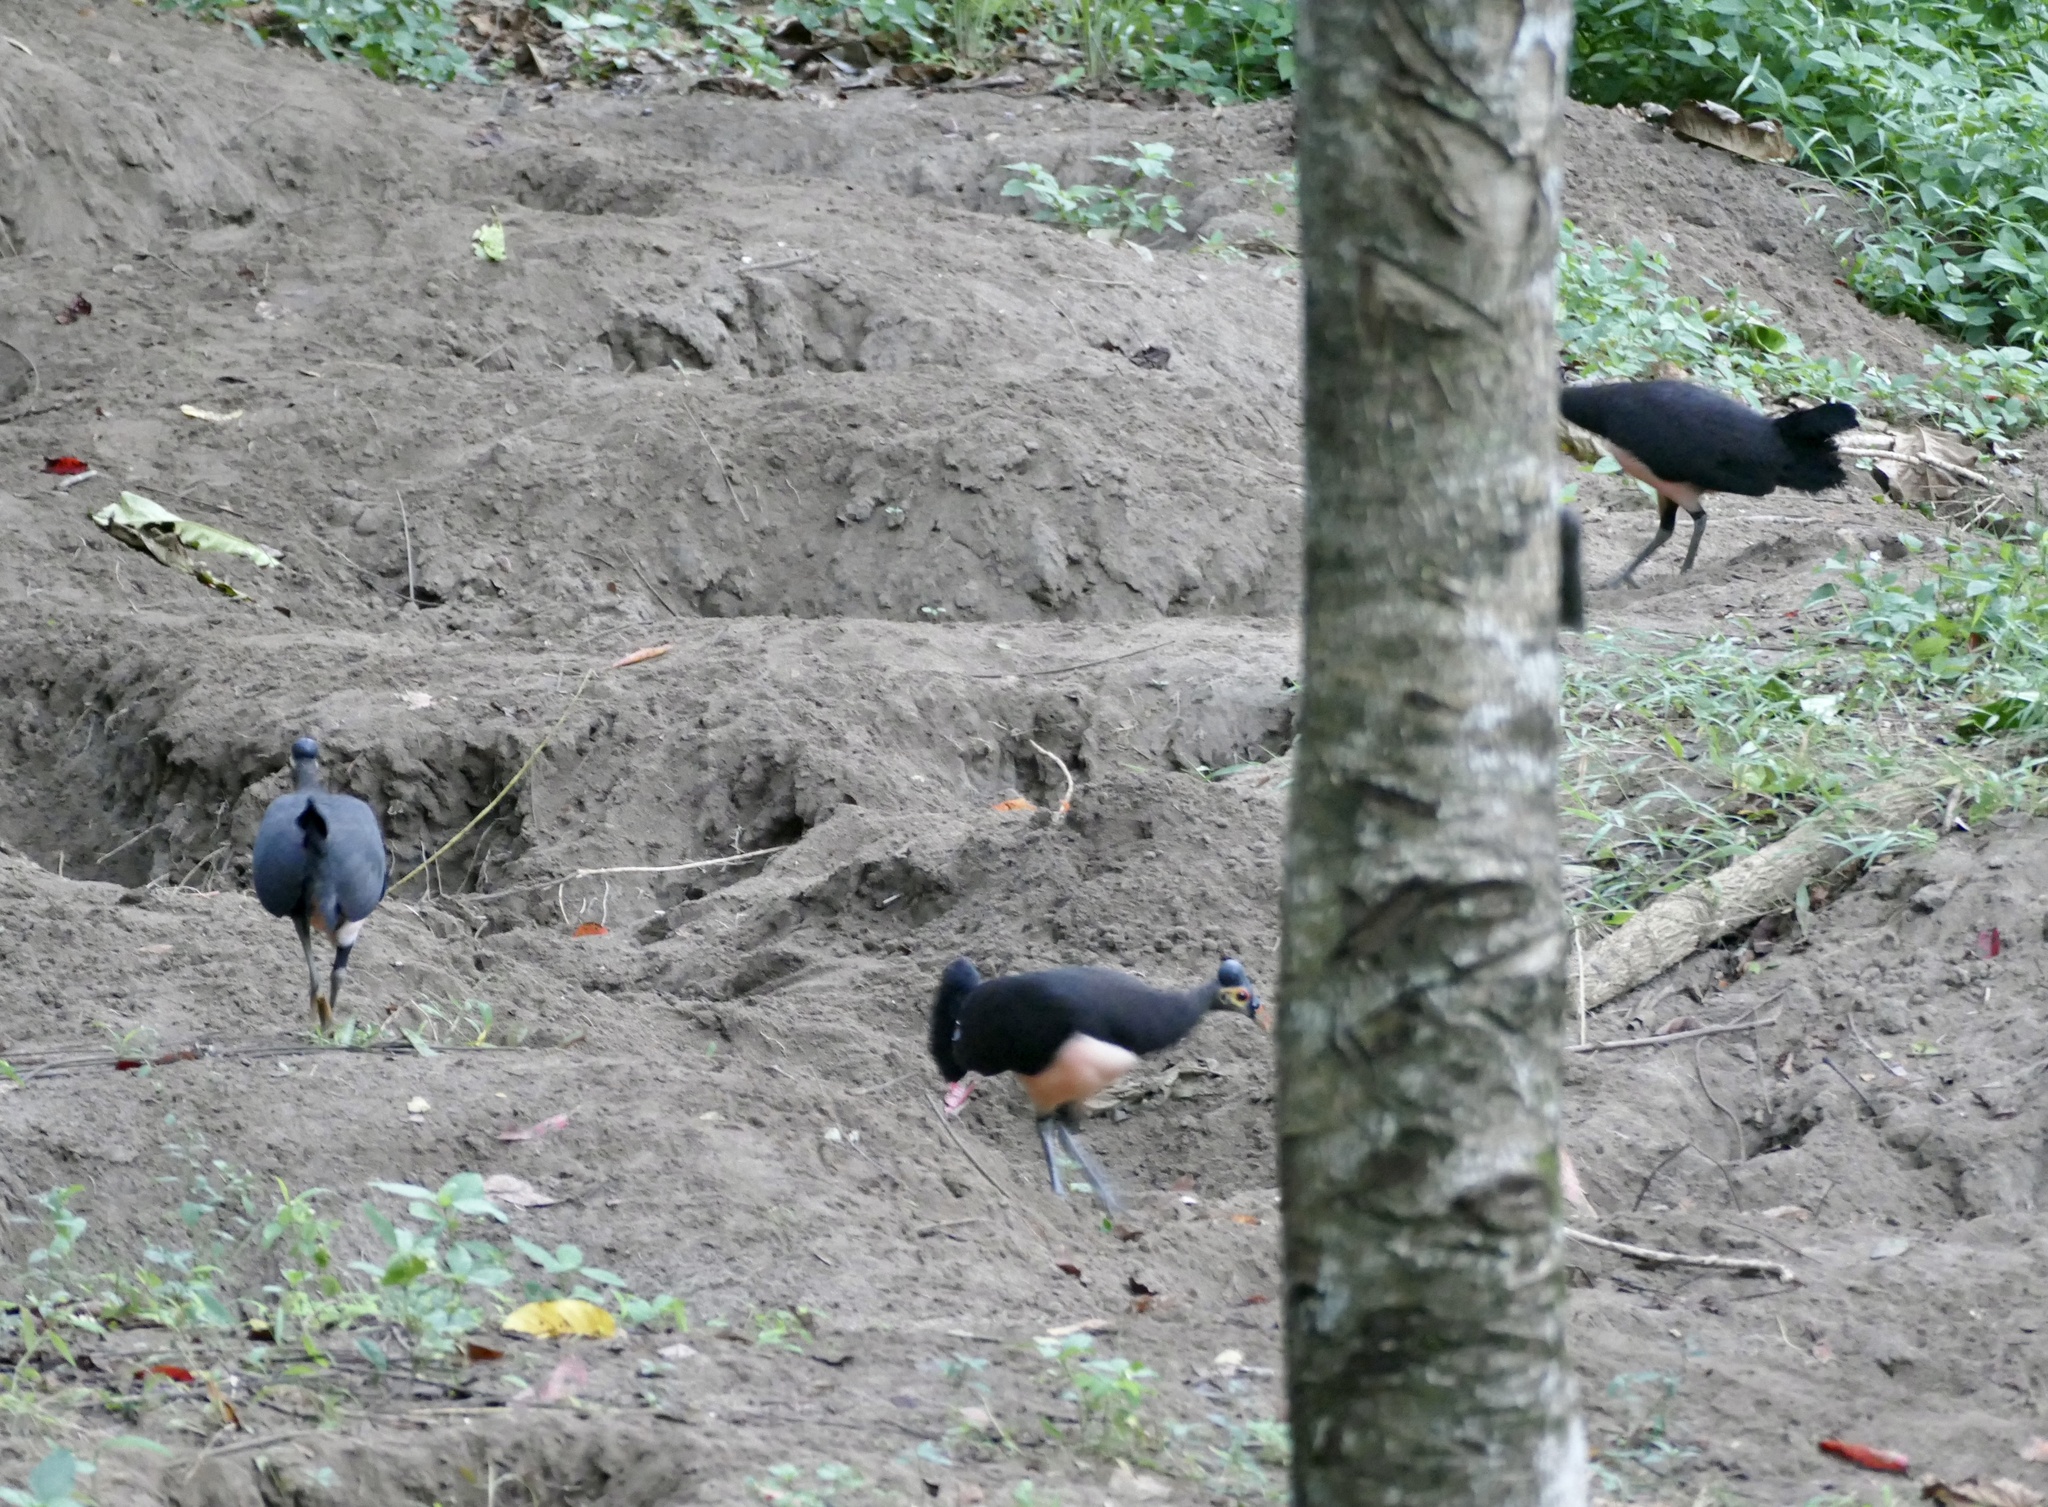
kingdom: Animalia
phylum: Chordata
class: Aves
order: Galliformes
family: Megapodiidae
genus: Macrocephalon
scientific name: Macrocephalon maleo
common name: Maleo
